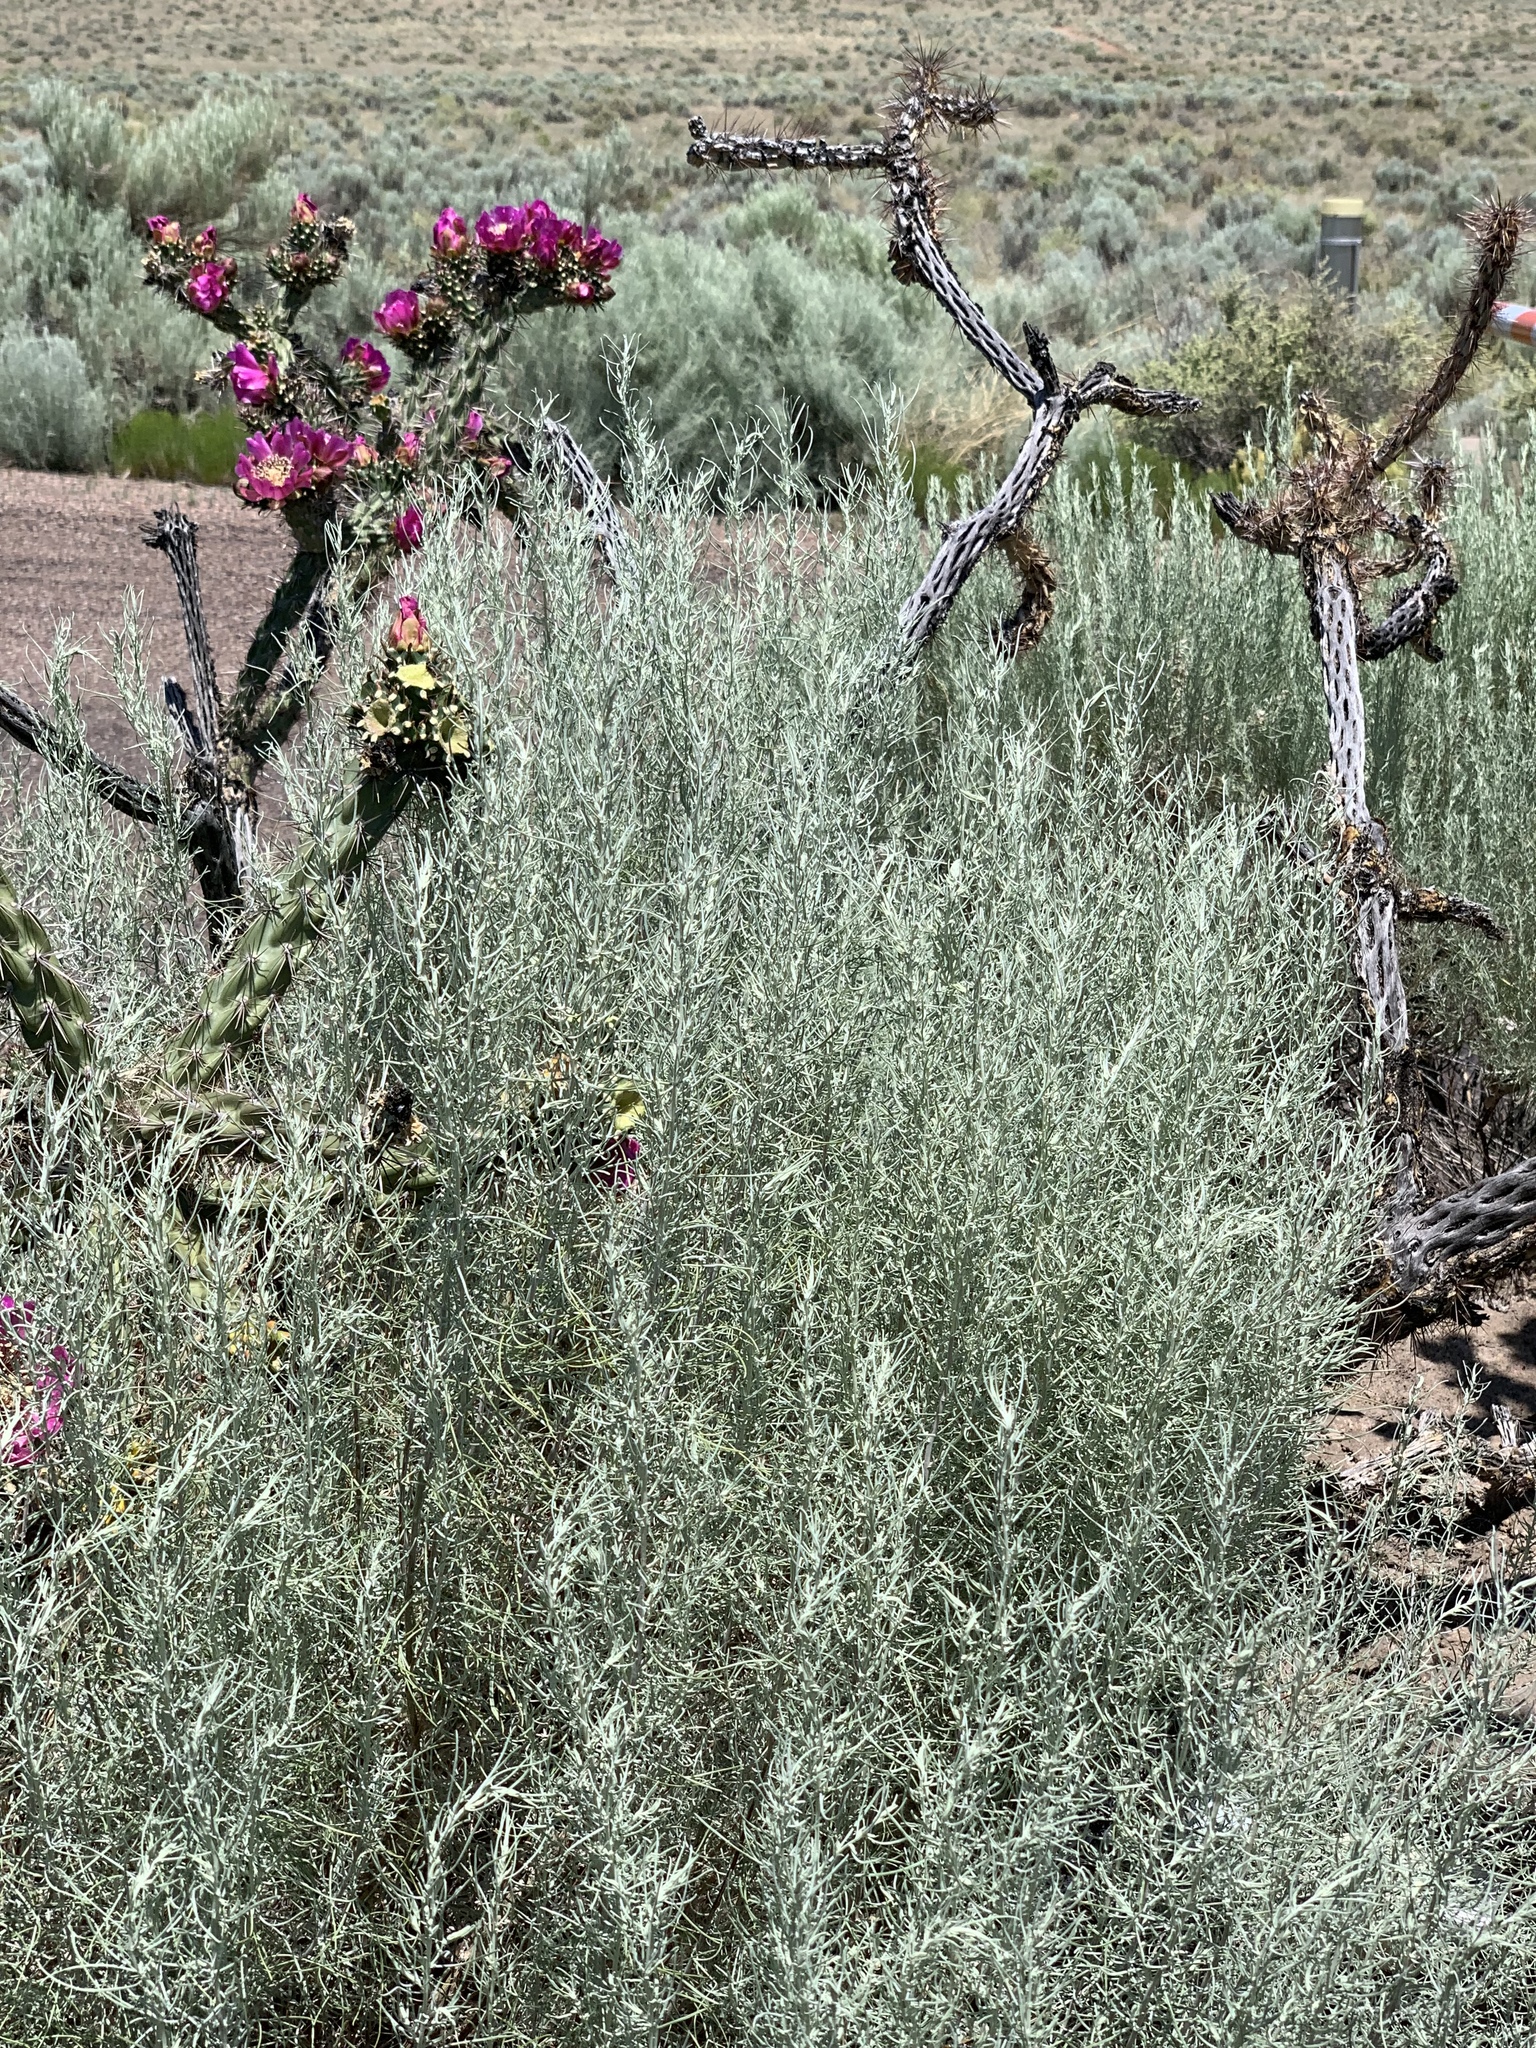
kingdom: Plantae
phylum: Tracheophyta
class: Magnoliopsida
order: Asterales
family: Asteraceae
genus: Artemisia
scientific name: Artemisia filifolia
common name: Sand-sage
